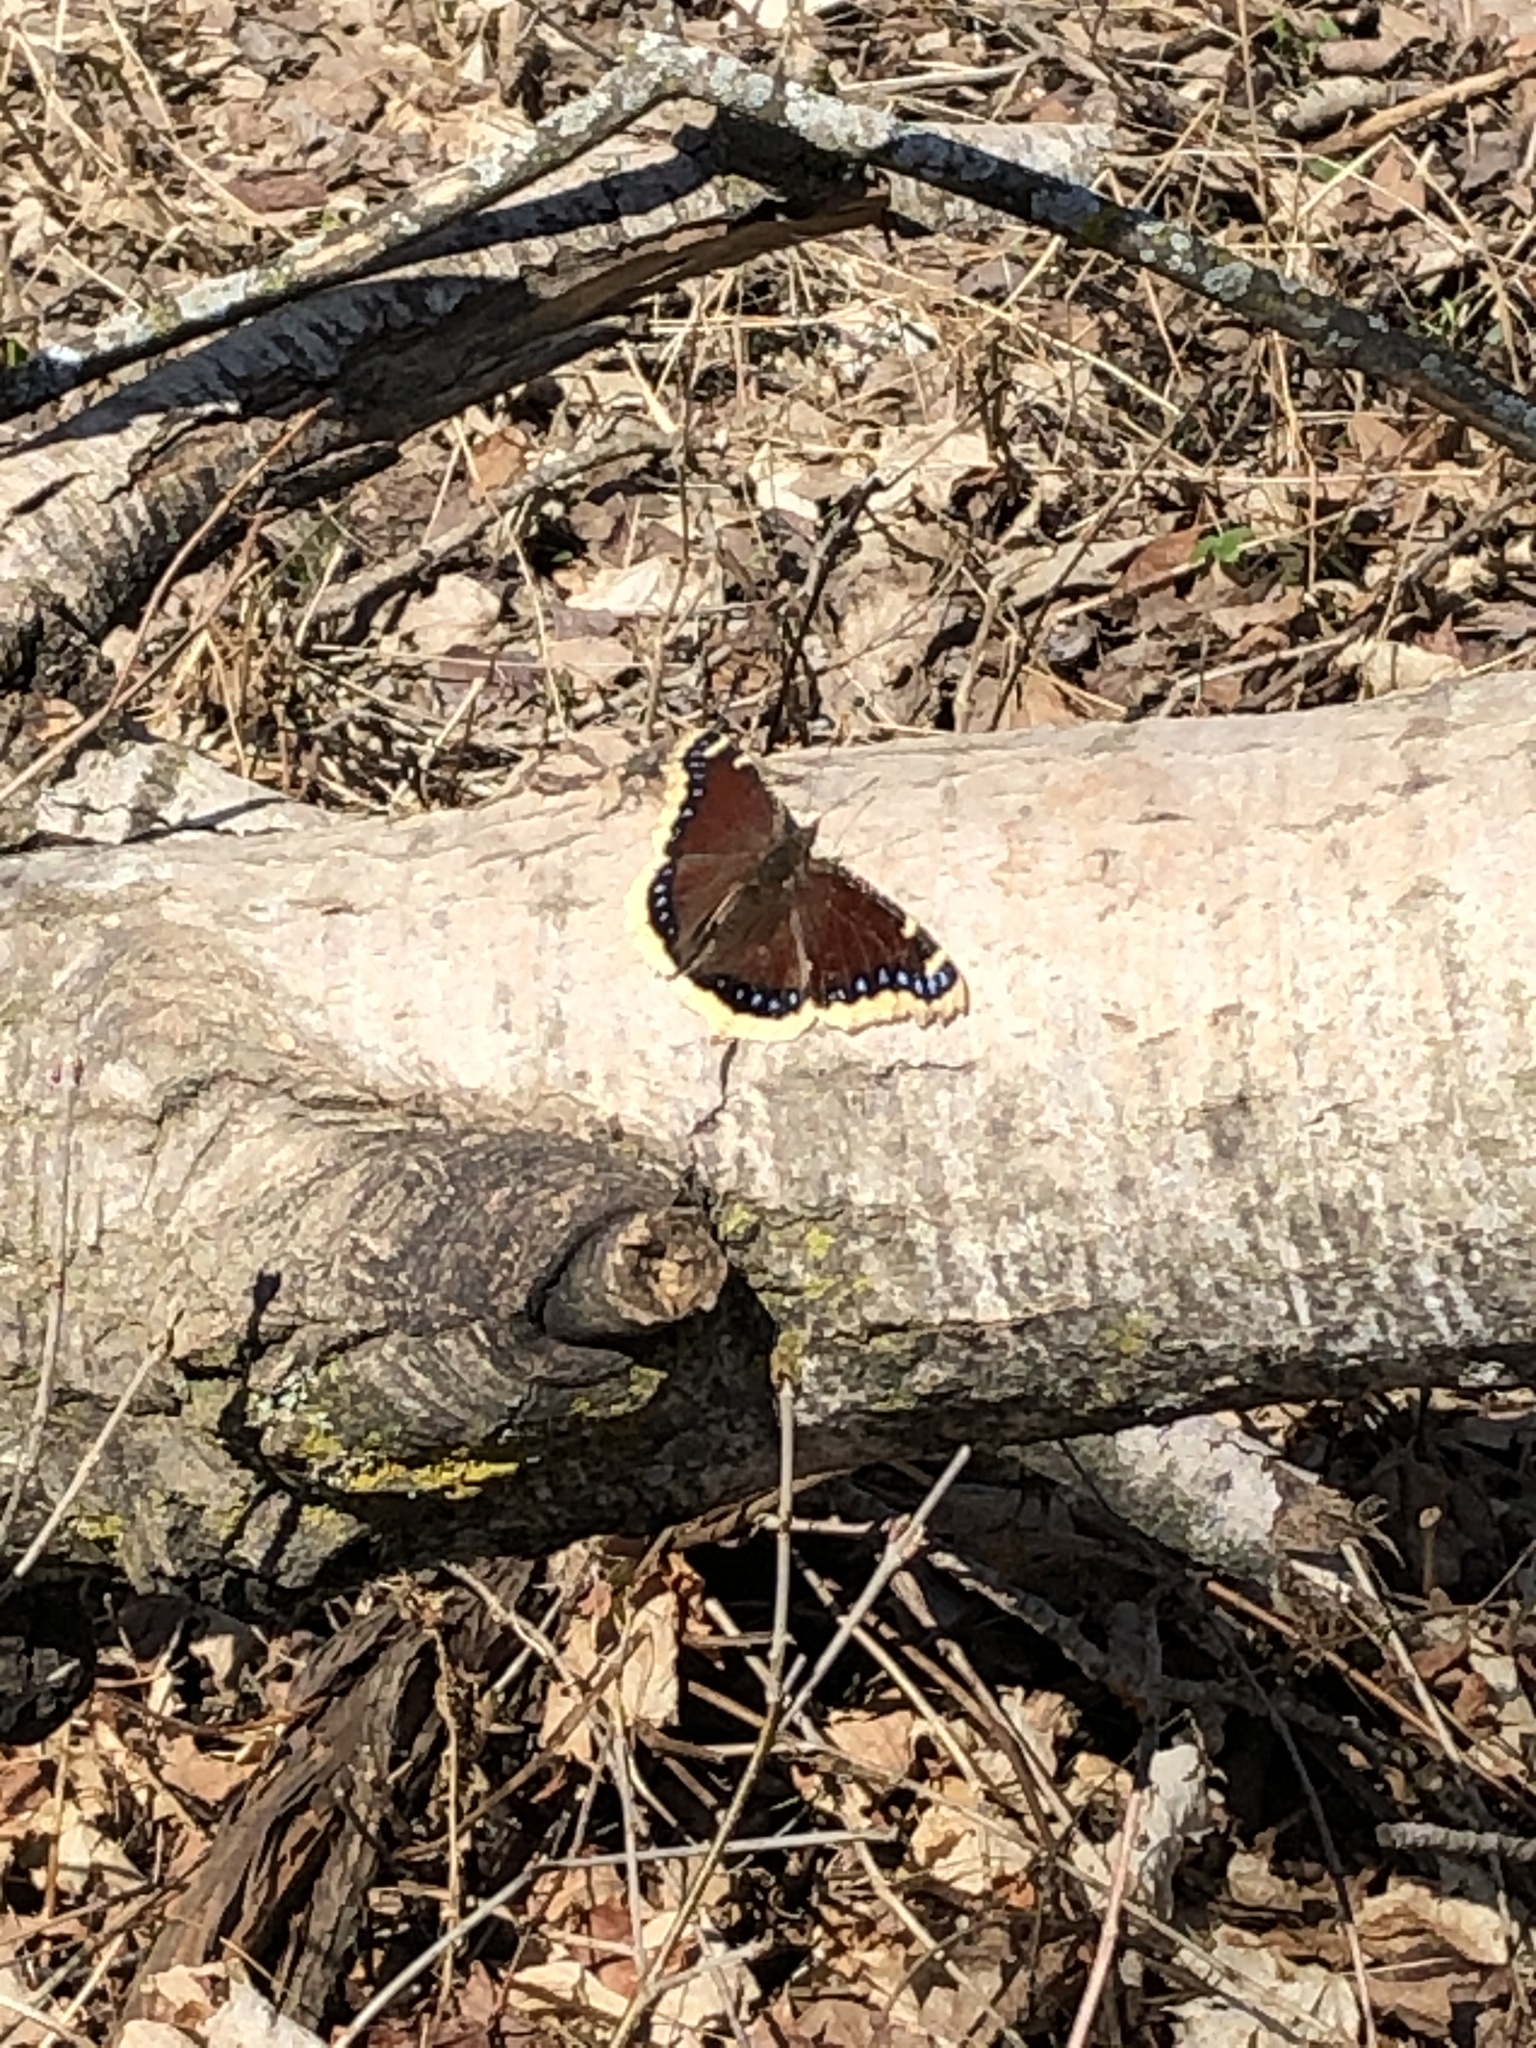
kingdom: Animalia
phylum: Arthropoda
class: Insecta
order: Lepidoptera
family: Nymphalidae
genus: Nymphalis
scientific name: Nymphalis antiopa
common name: Camberwell beauty
